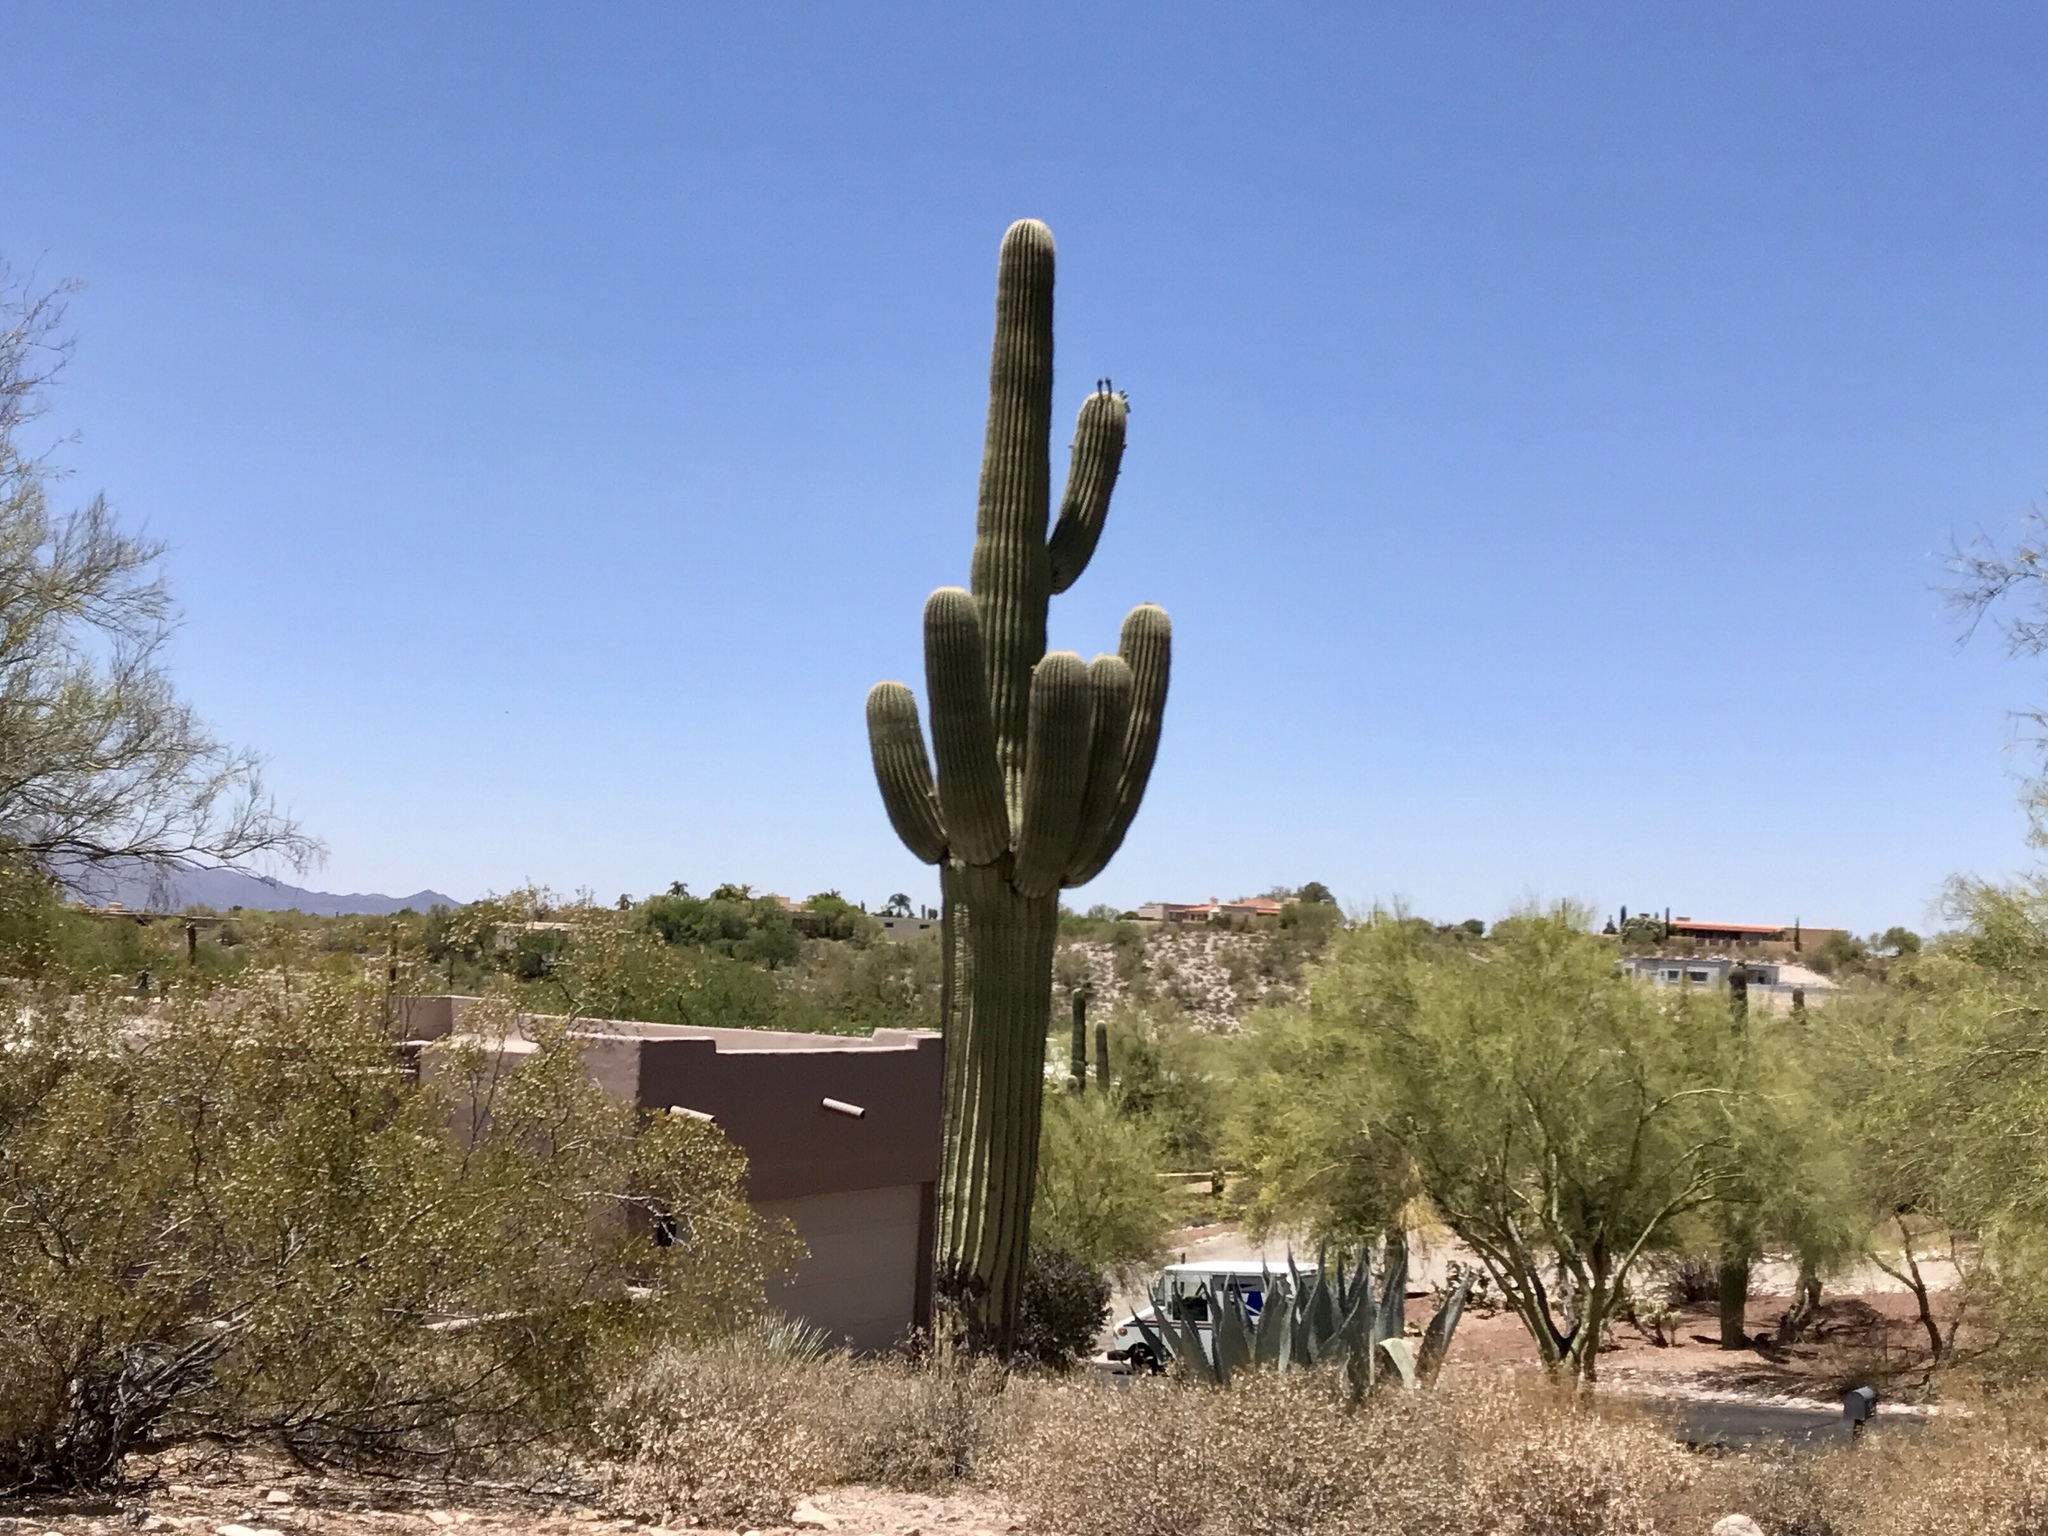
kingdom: Plantae
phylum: Tracheophyta
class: Magnoliopsida
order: Caryophyllales
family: Cactaceae
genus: Carnegiea
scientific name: Carnegiea gigantea
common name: Saguaro
